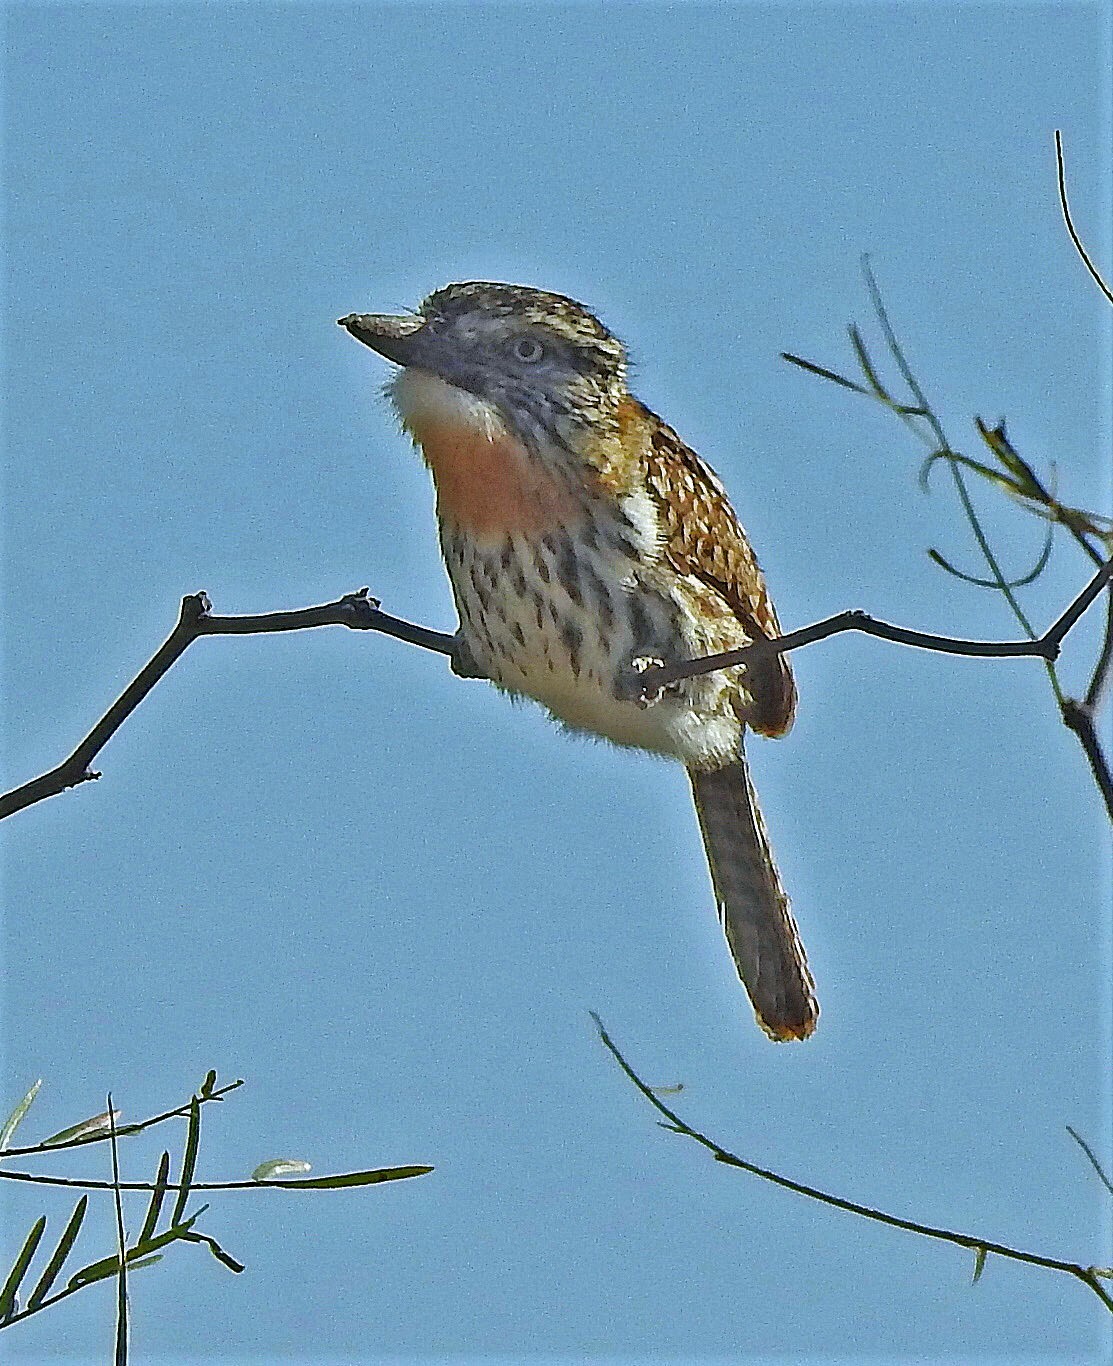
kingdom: Animalia
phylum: Chordata
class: Aves
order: Piciformes
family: Bucconidae
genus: Nystalus
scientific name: Nystalus maculatus
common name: Caatinga puffbird
